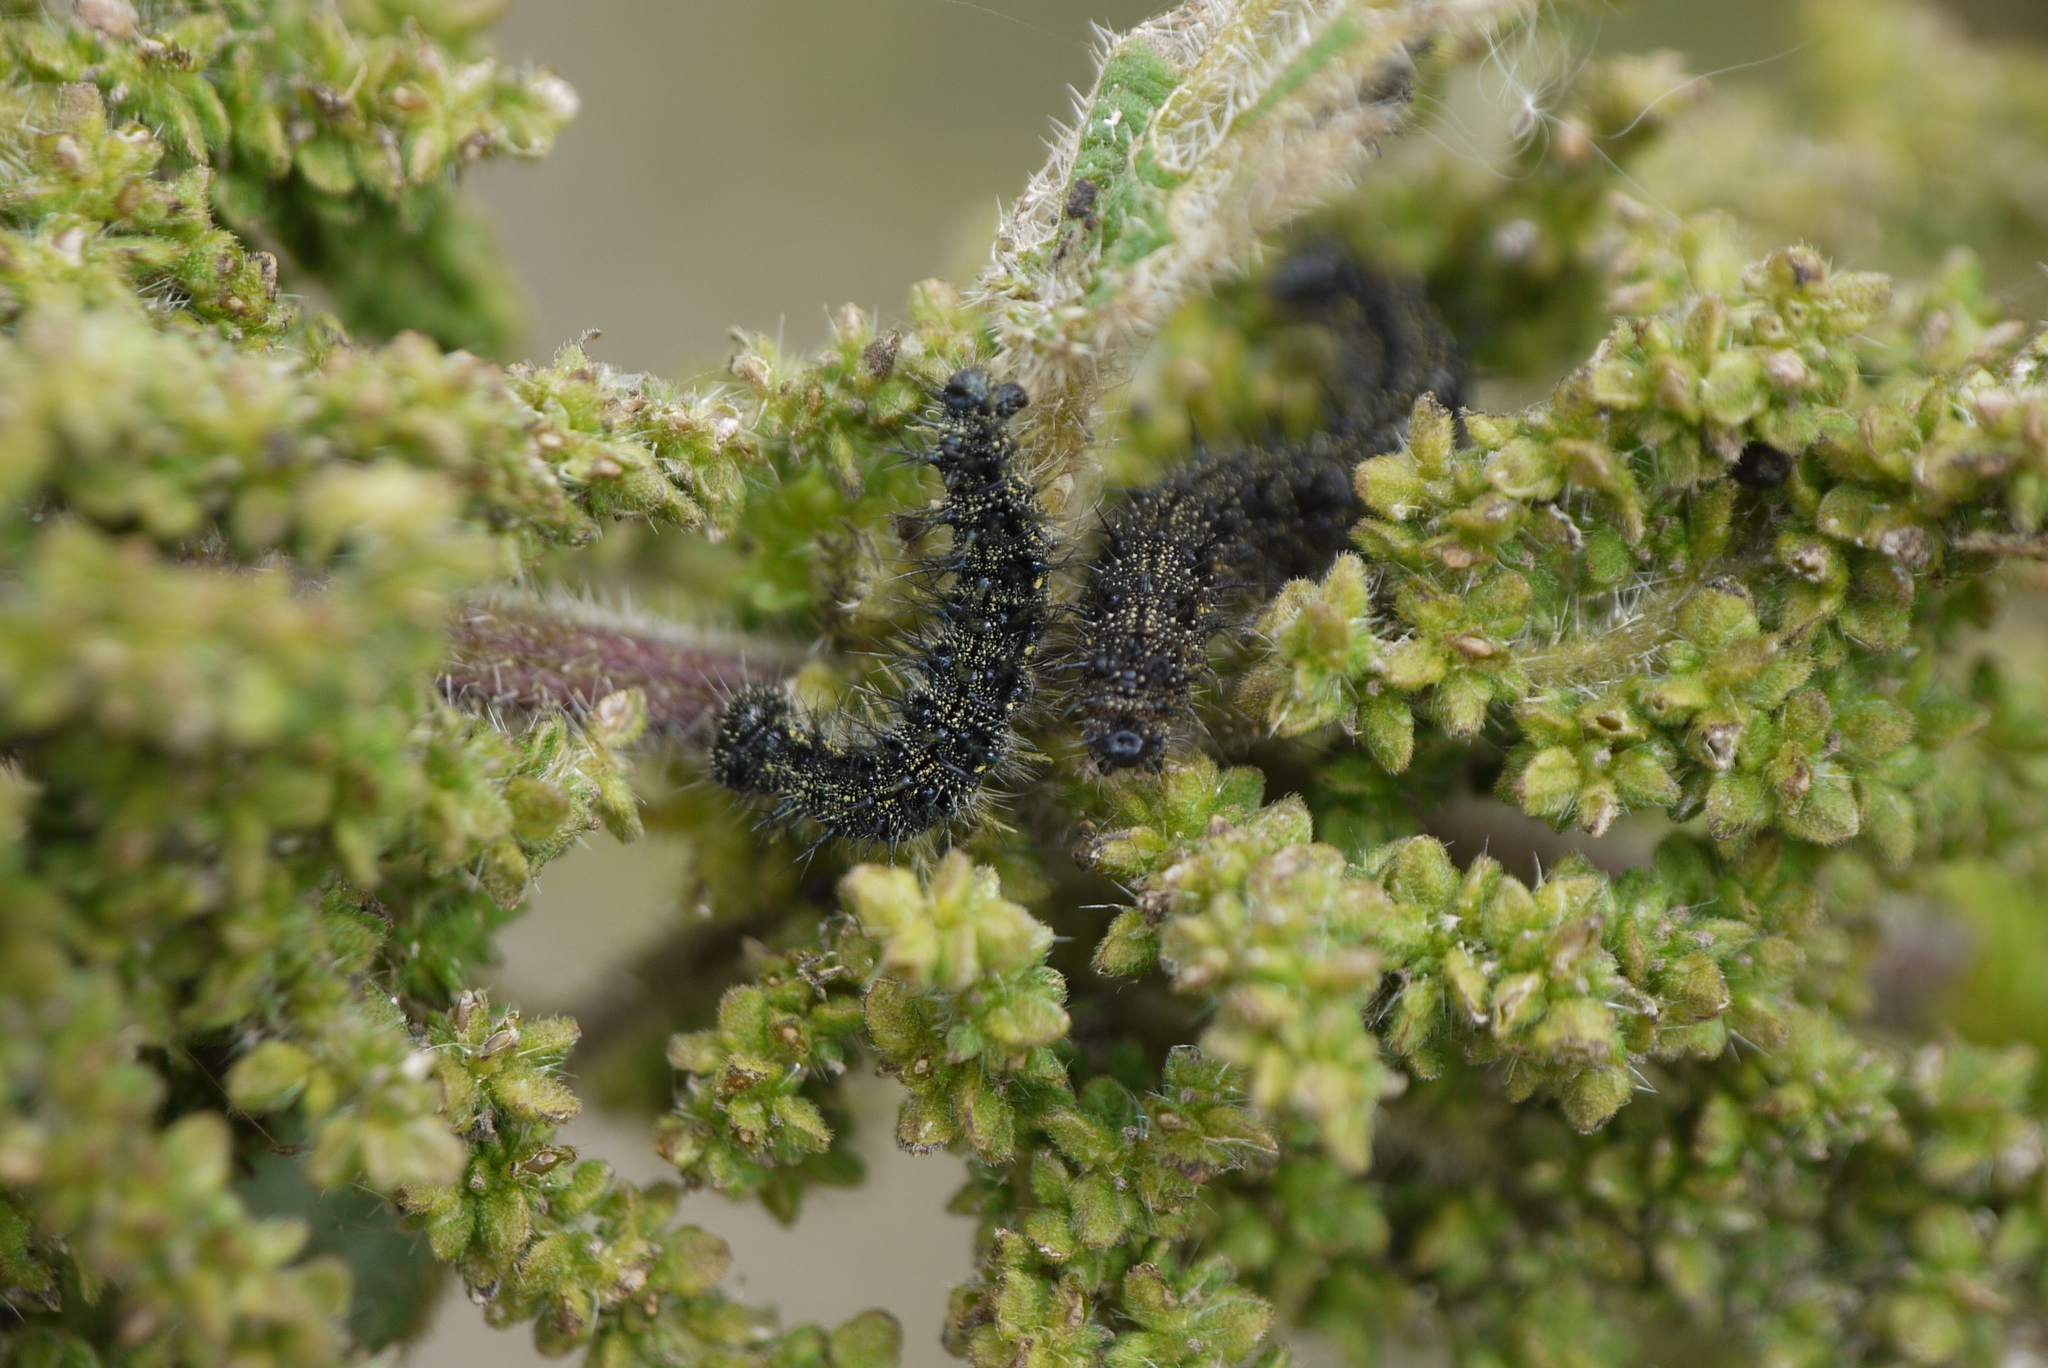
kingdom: Animalia
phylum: Arthropoda
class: Insecta
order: Lepidoptera
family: Nymphalidae
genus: Aglais
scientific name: Aglais urticae
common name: Small tortoiseshell
